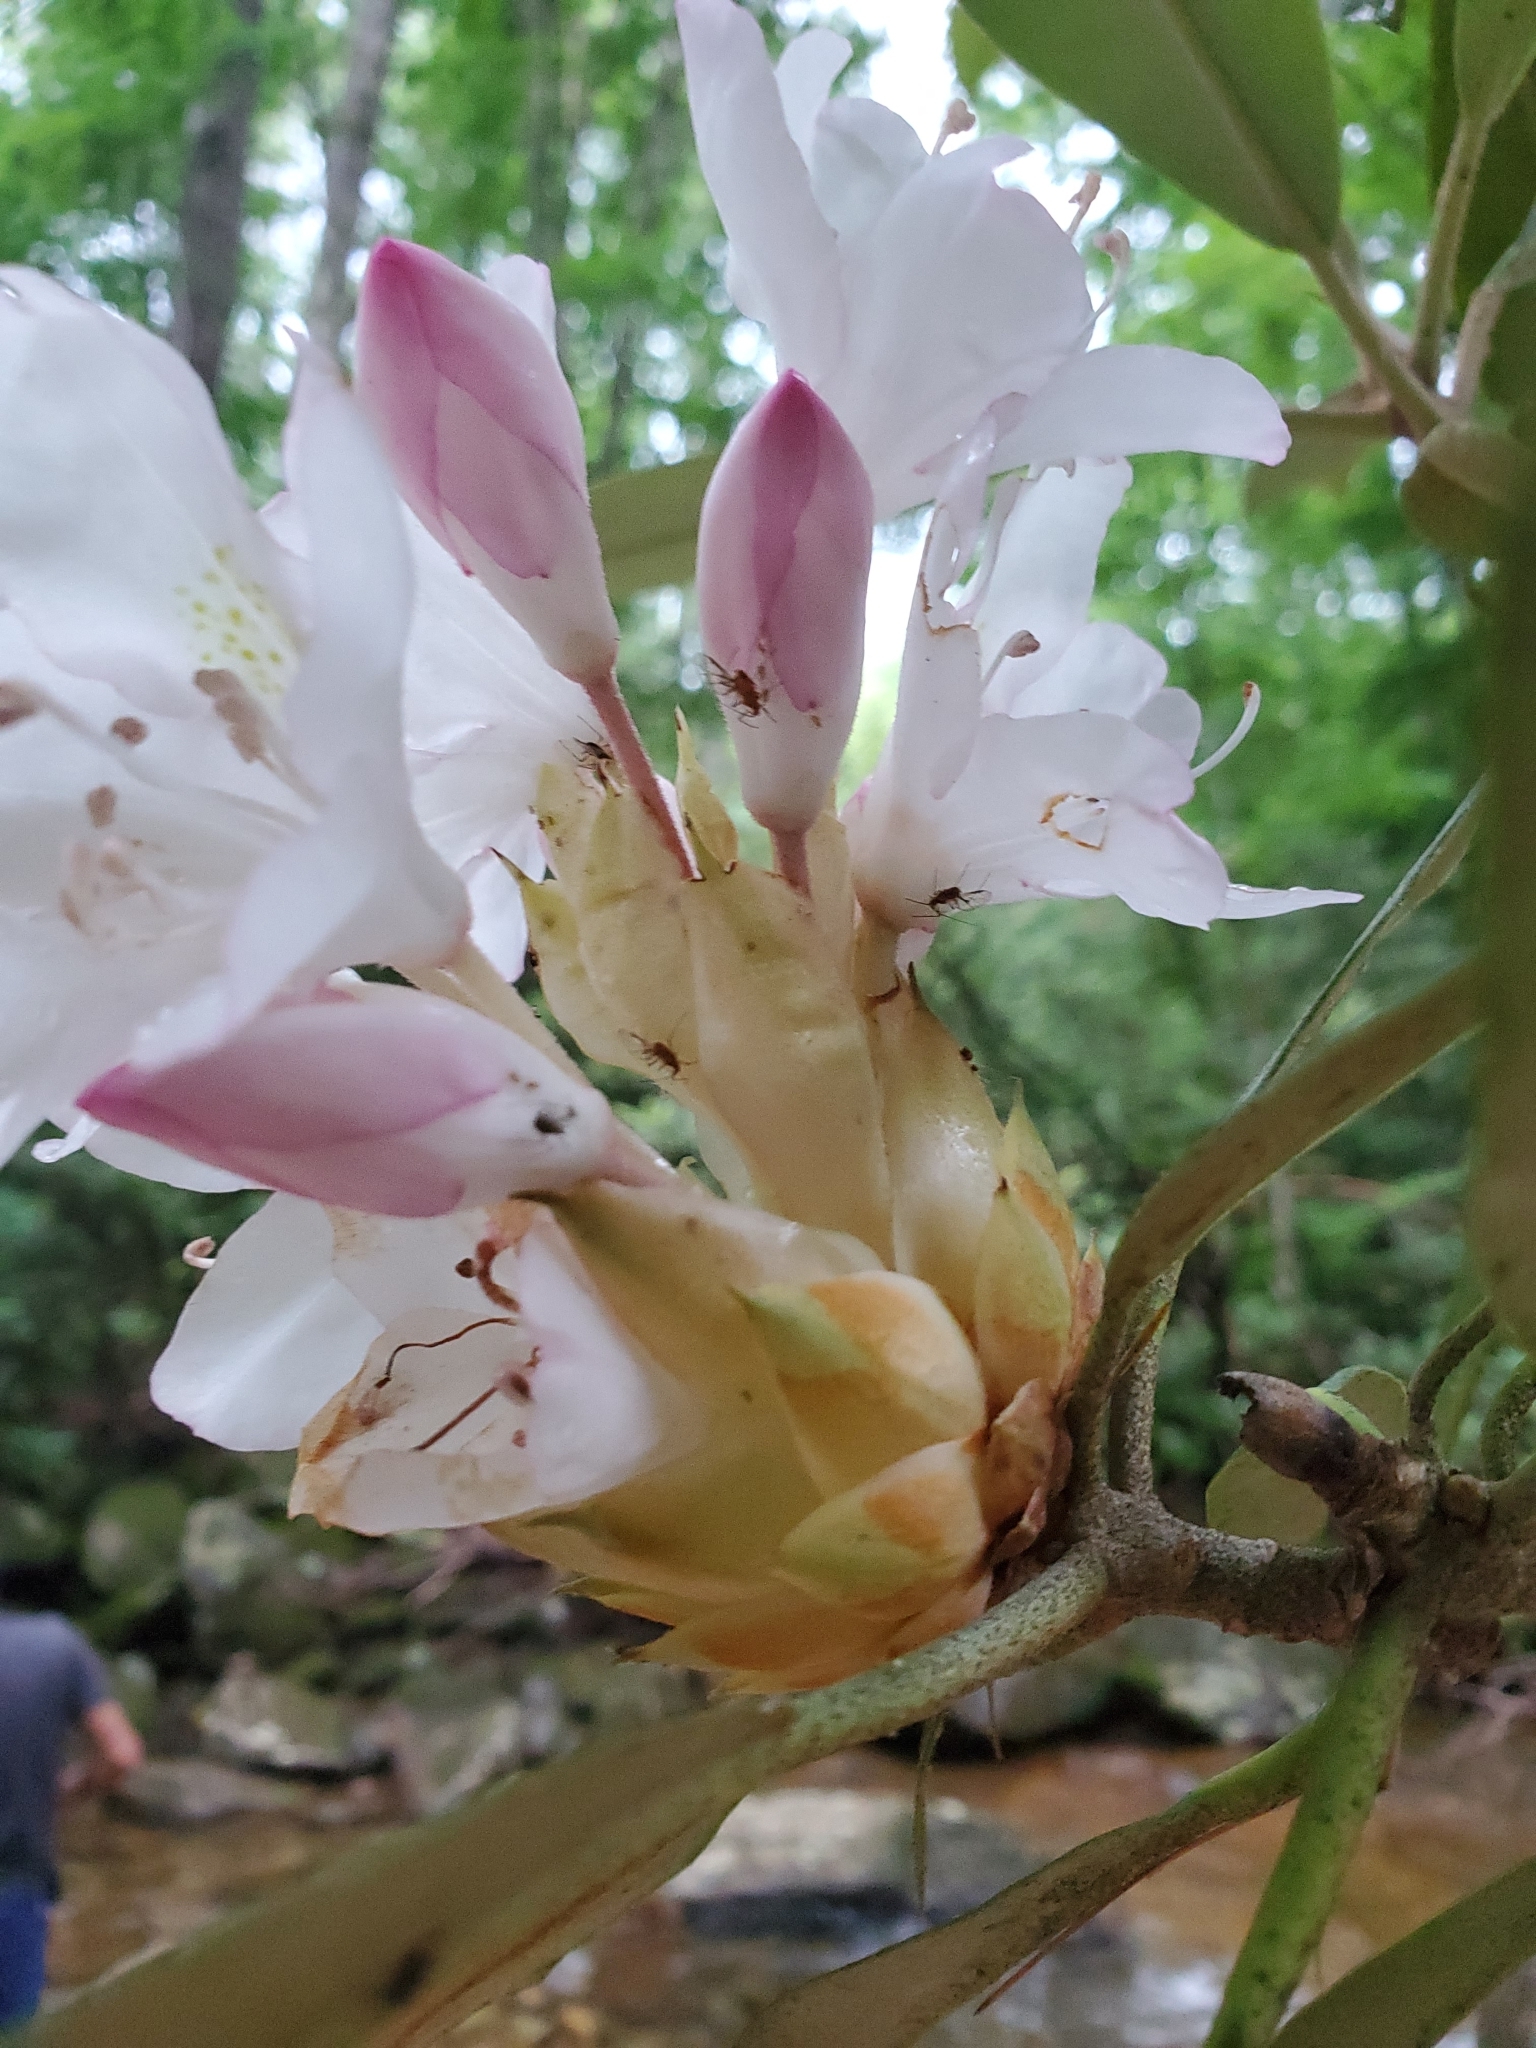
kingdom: Plantae
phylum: Tracheophyta
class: Magnoliopsida
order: Ericales
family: Ericaceae
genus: Rhododendron
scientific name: Rhododendron maximum
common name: Great rhododendron
